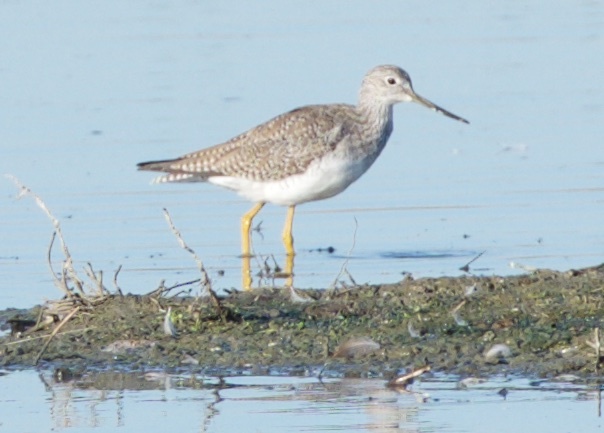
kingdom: Animalia
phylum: Chordata
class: Aves
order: Charadriiformes
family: Scolopacidae
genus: Tringa
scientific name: Tringa melanoleuca
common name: Greater yellowlegs
